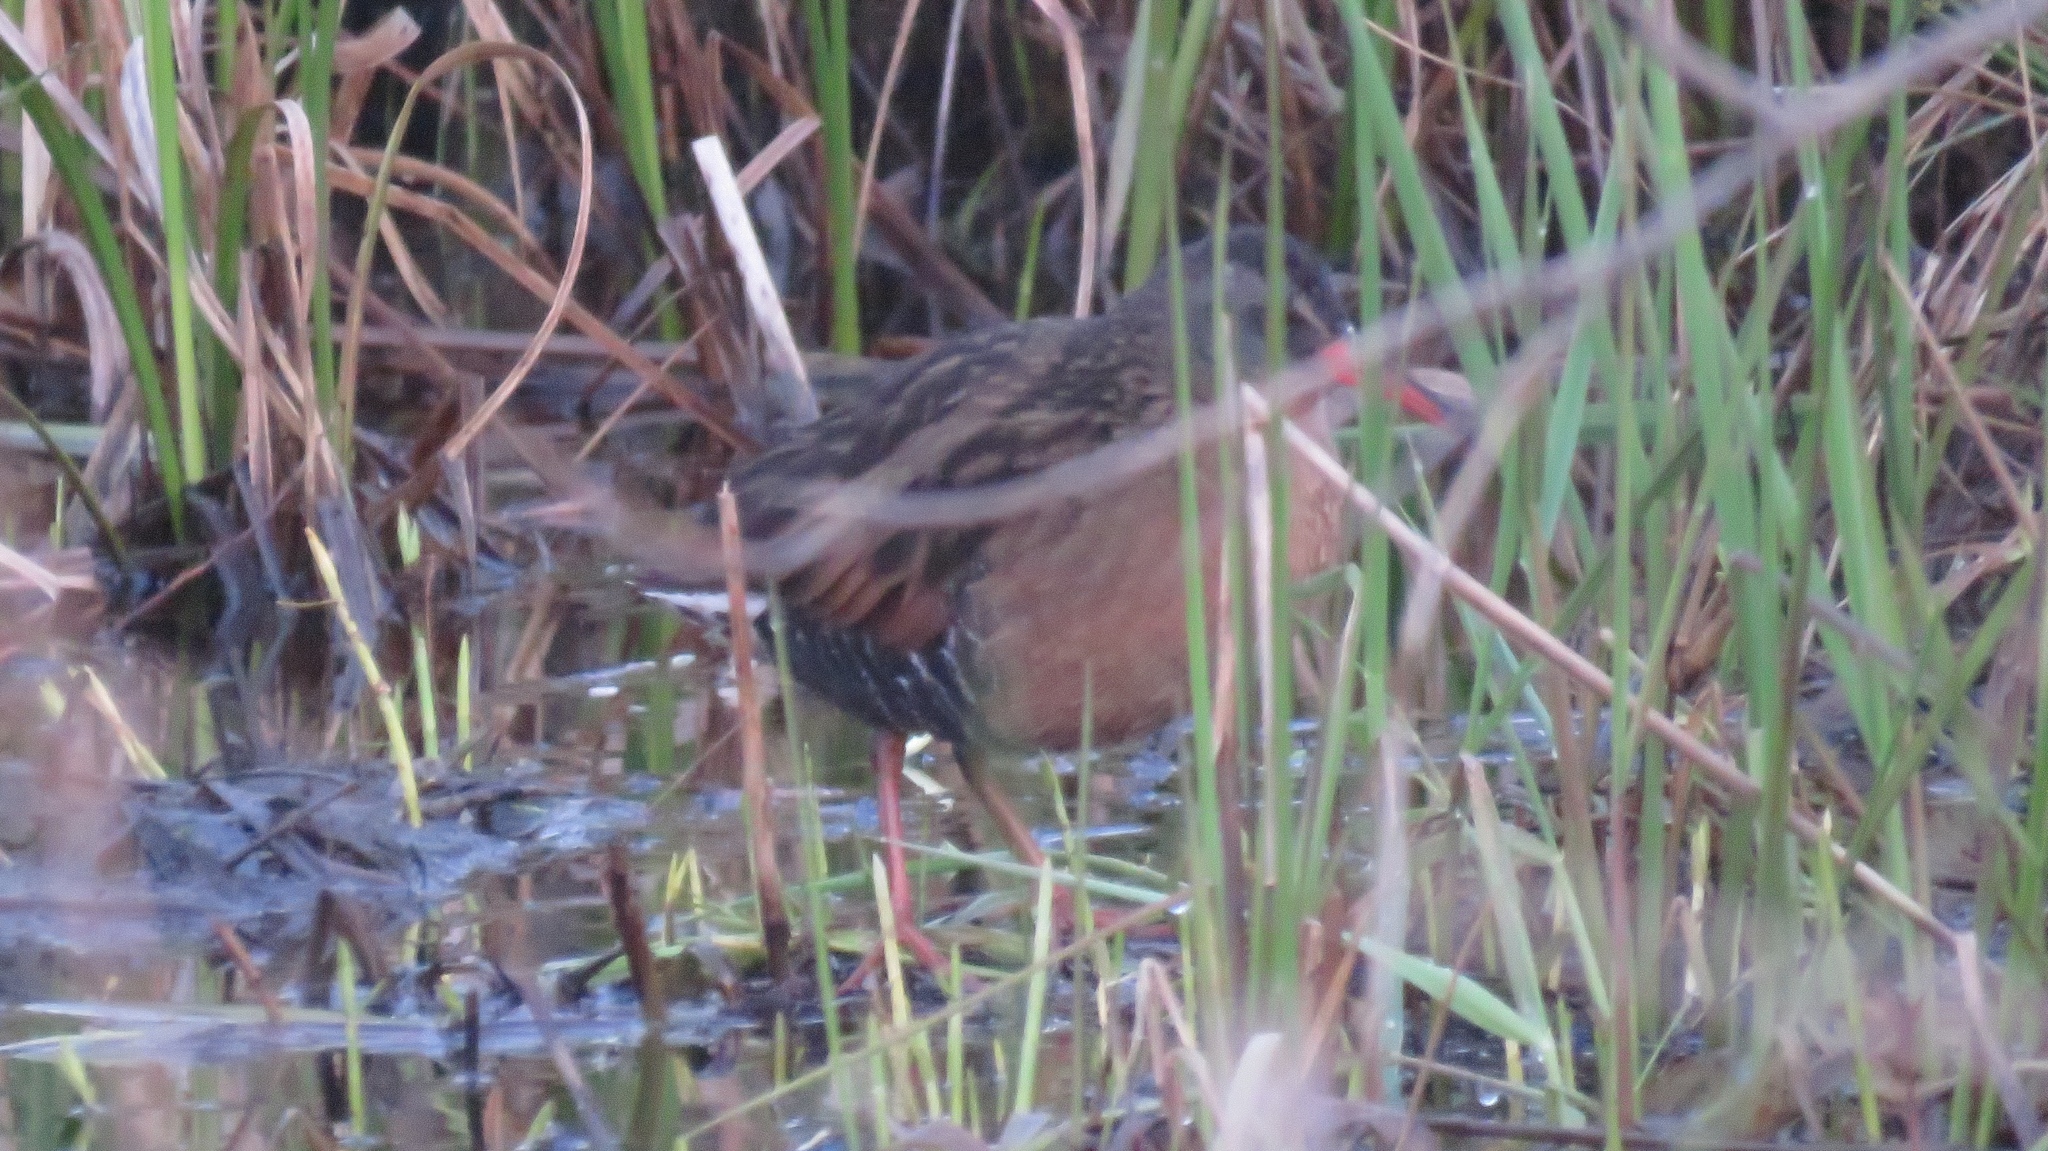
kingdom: Animalia
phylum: Chordata
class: Aves
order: Gruiformes
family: Rallidae
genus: Rallus
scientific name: Rallus limicola
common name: Virginia rail
